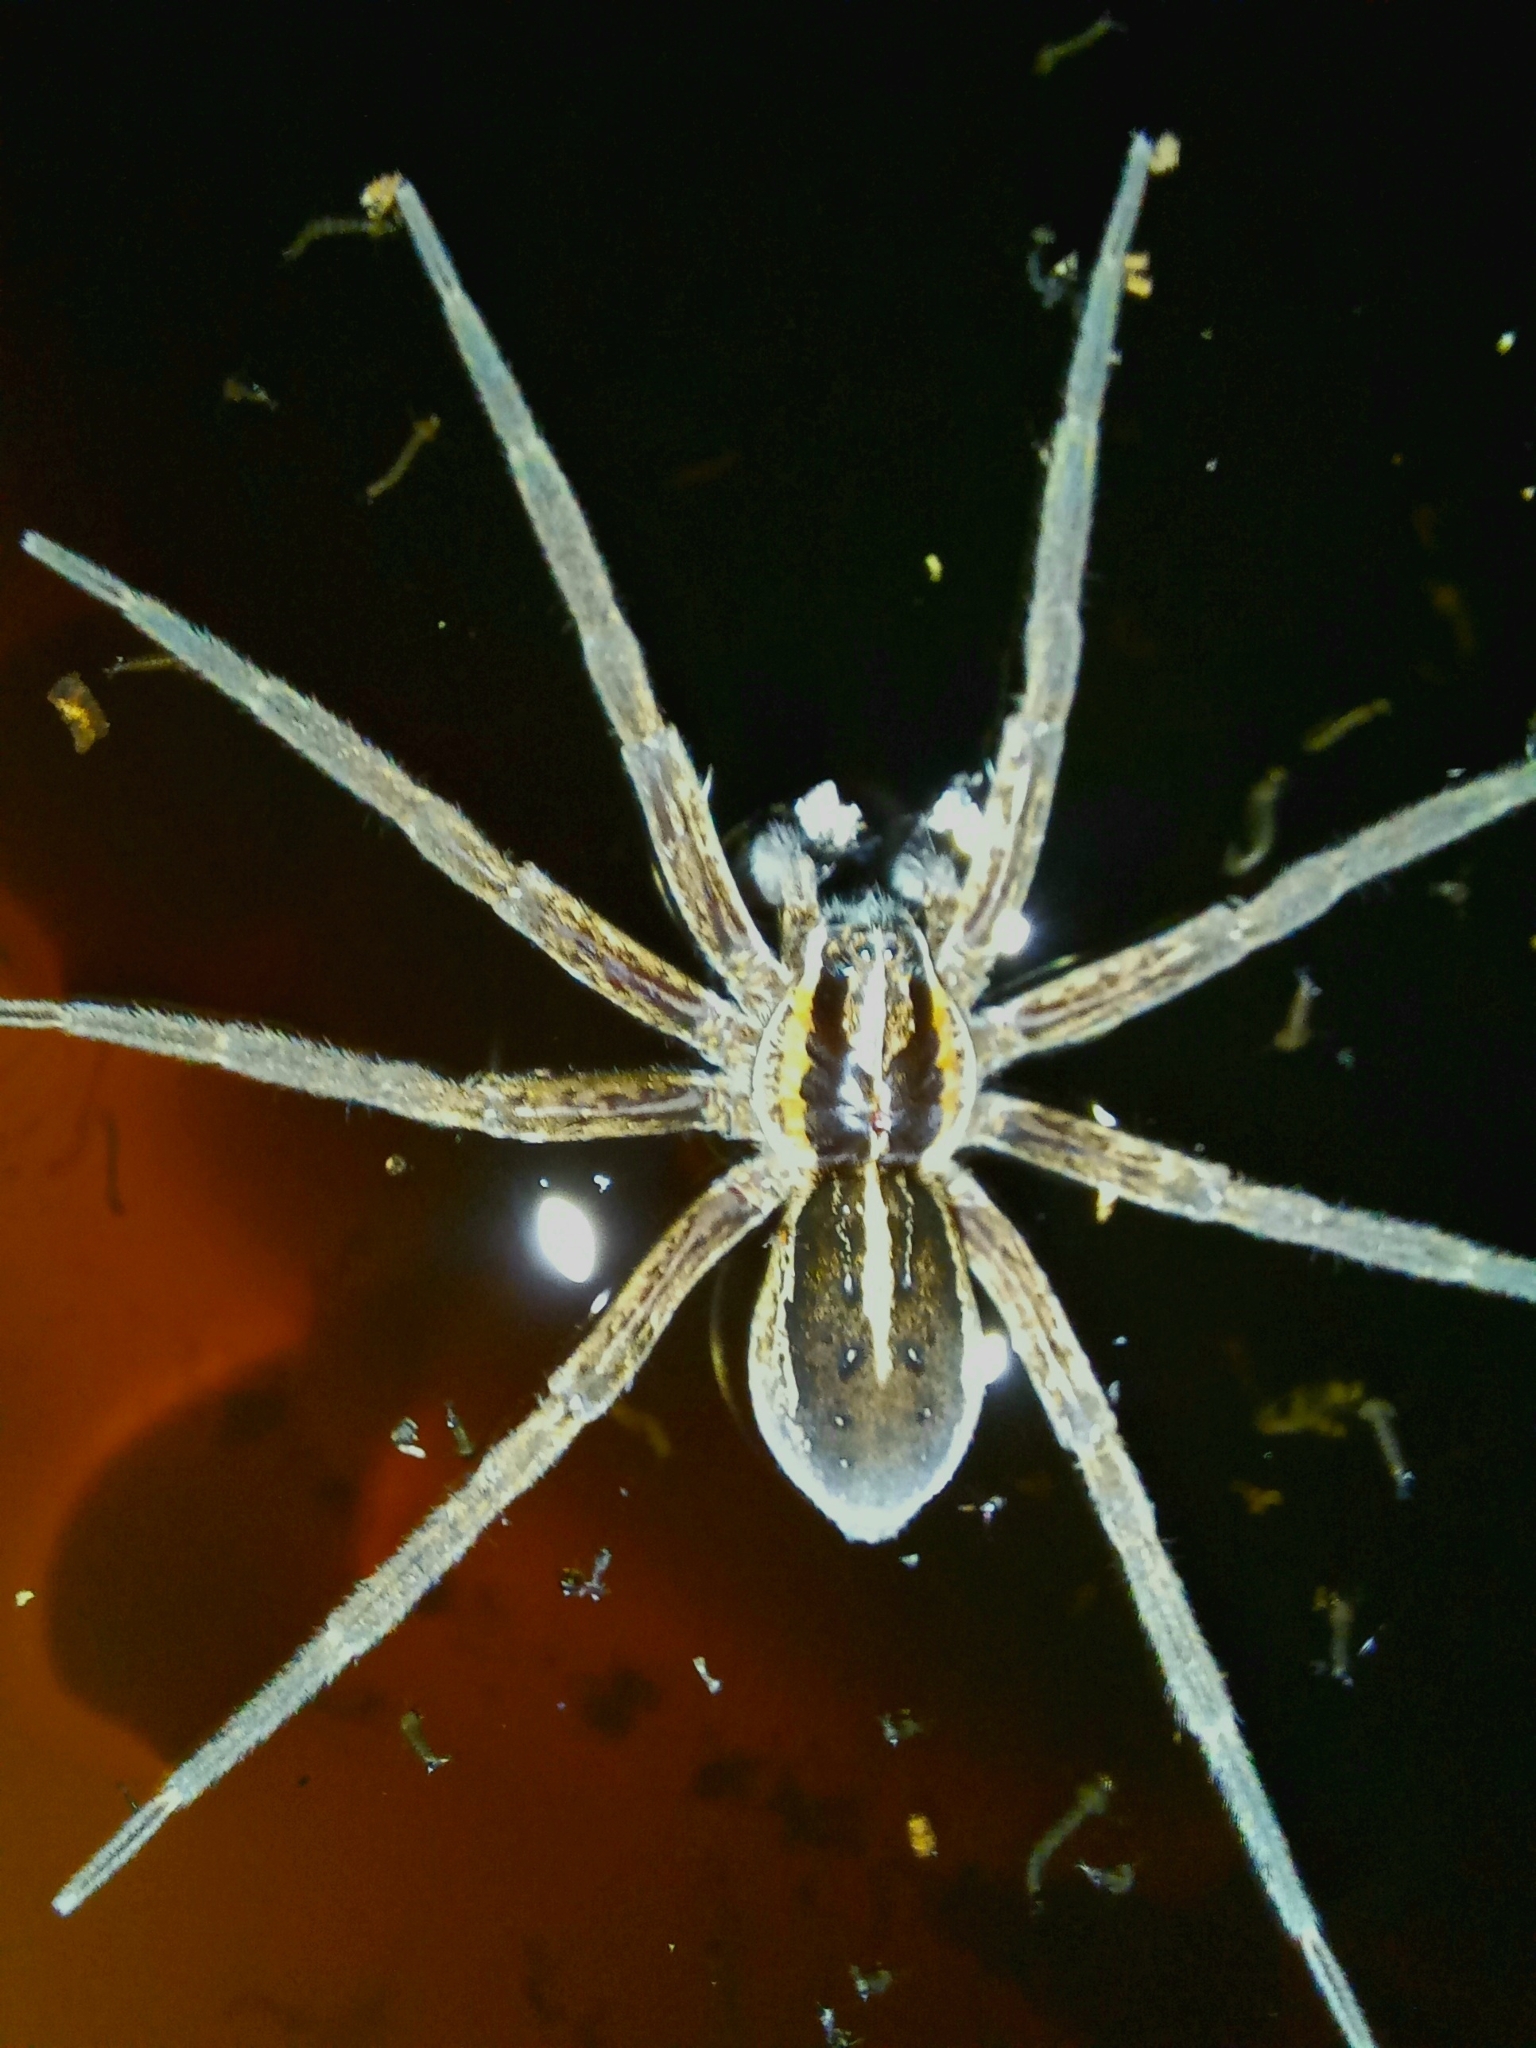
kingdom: Animalia
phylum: Arthropoda
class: Arachnida
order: Araneae
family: Pisauridae
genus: Dolomedes
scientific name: Dolomedes minor
